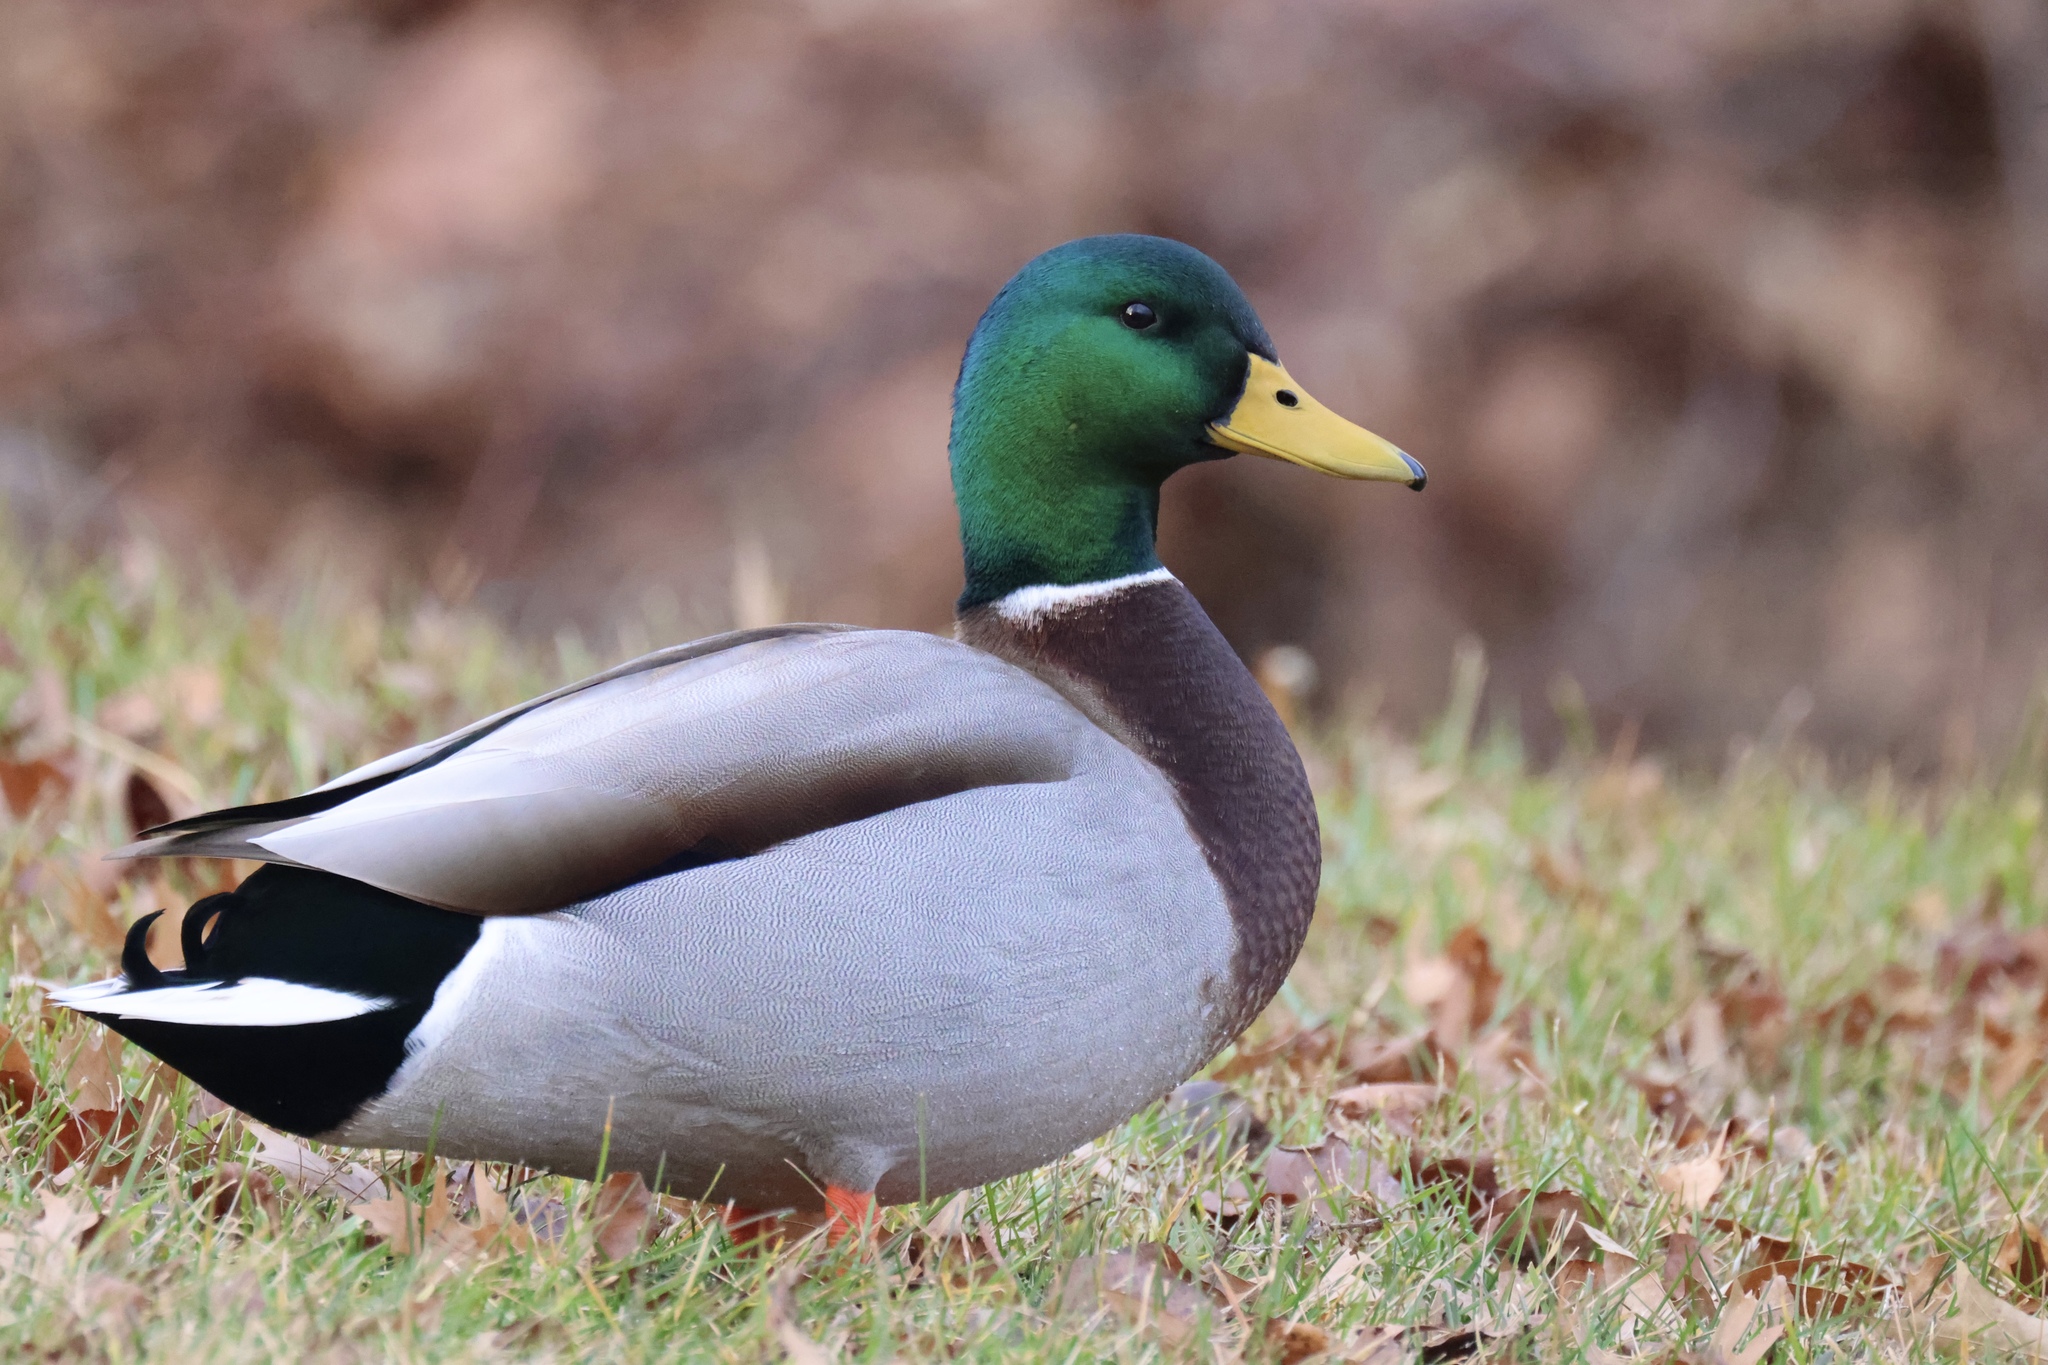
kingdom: Animalia
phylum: Chordata
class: Aves
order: Anseriformes
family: Anatidae
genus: Anas
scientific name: Anas platyrhynchos
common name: Mallard
